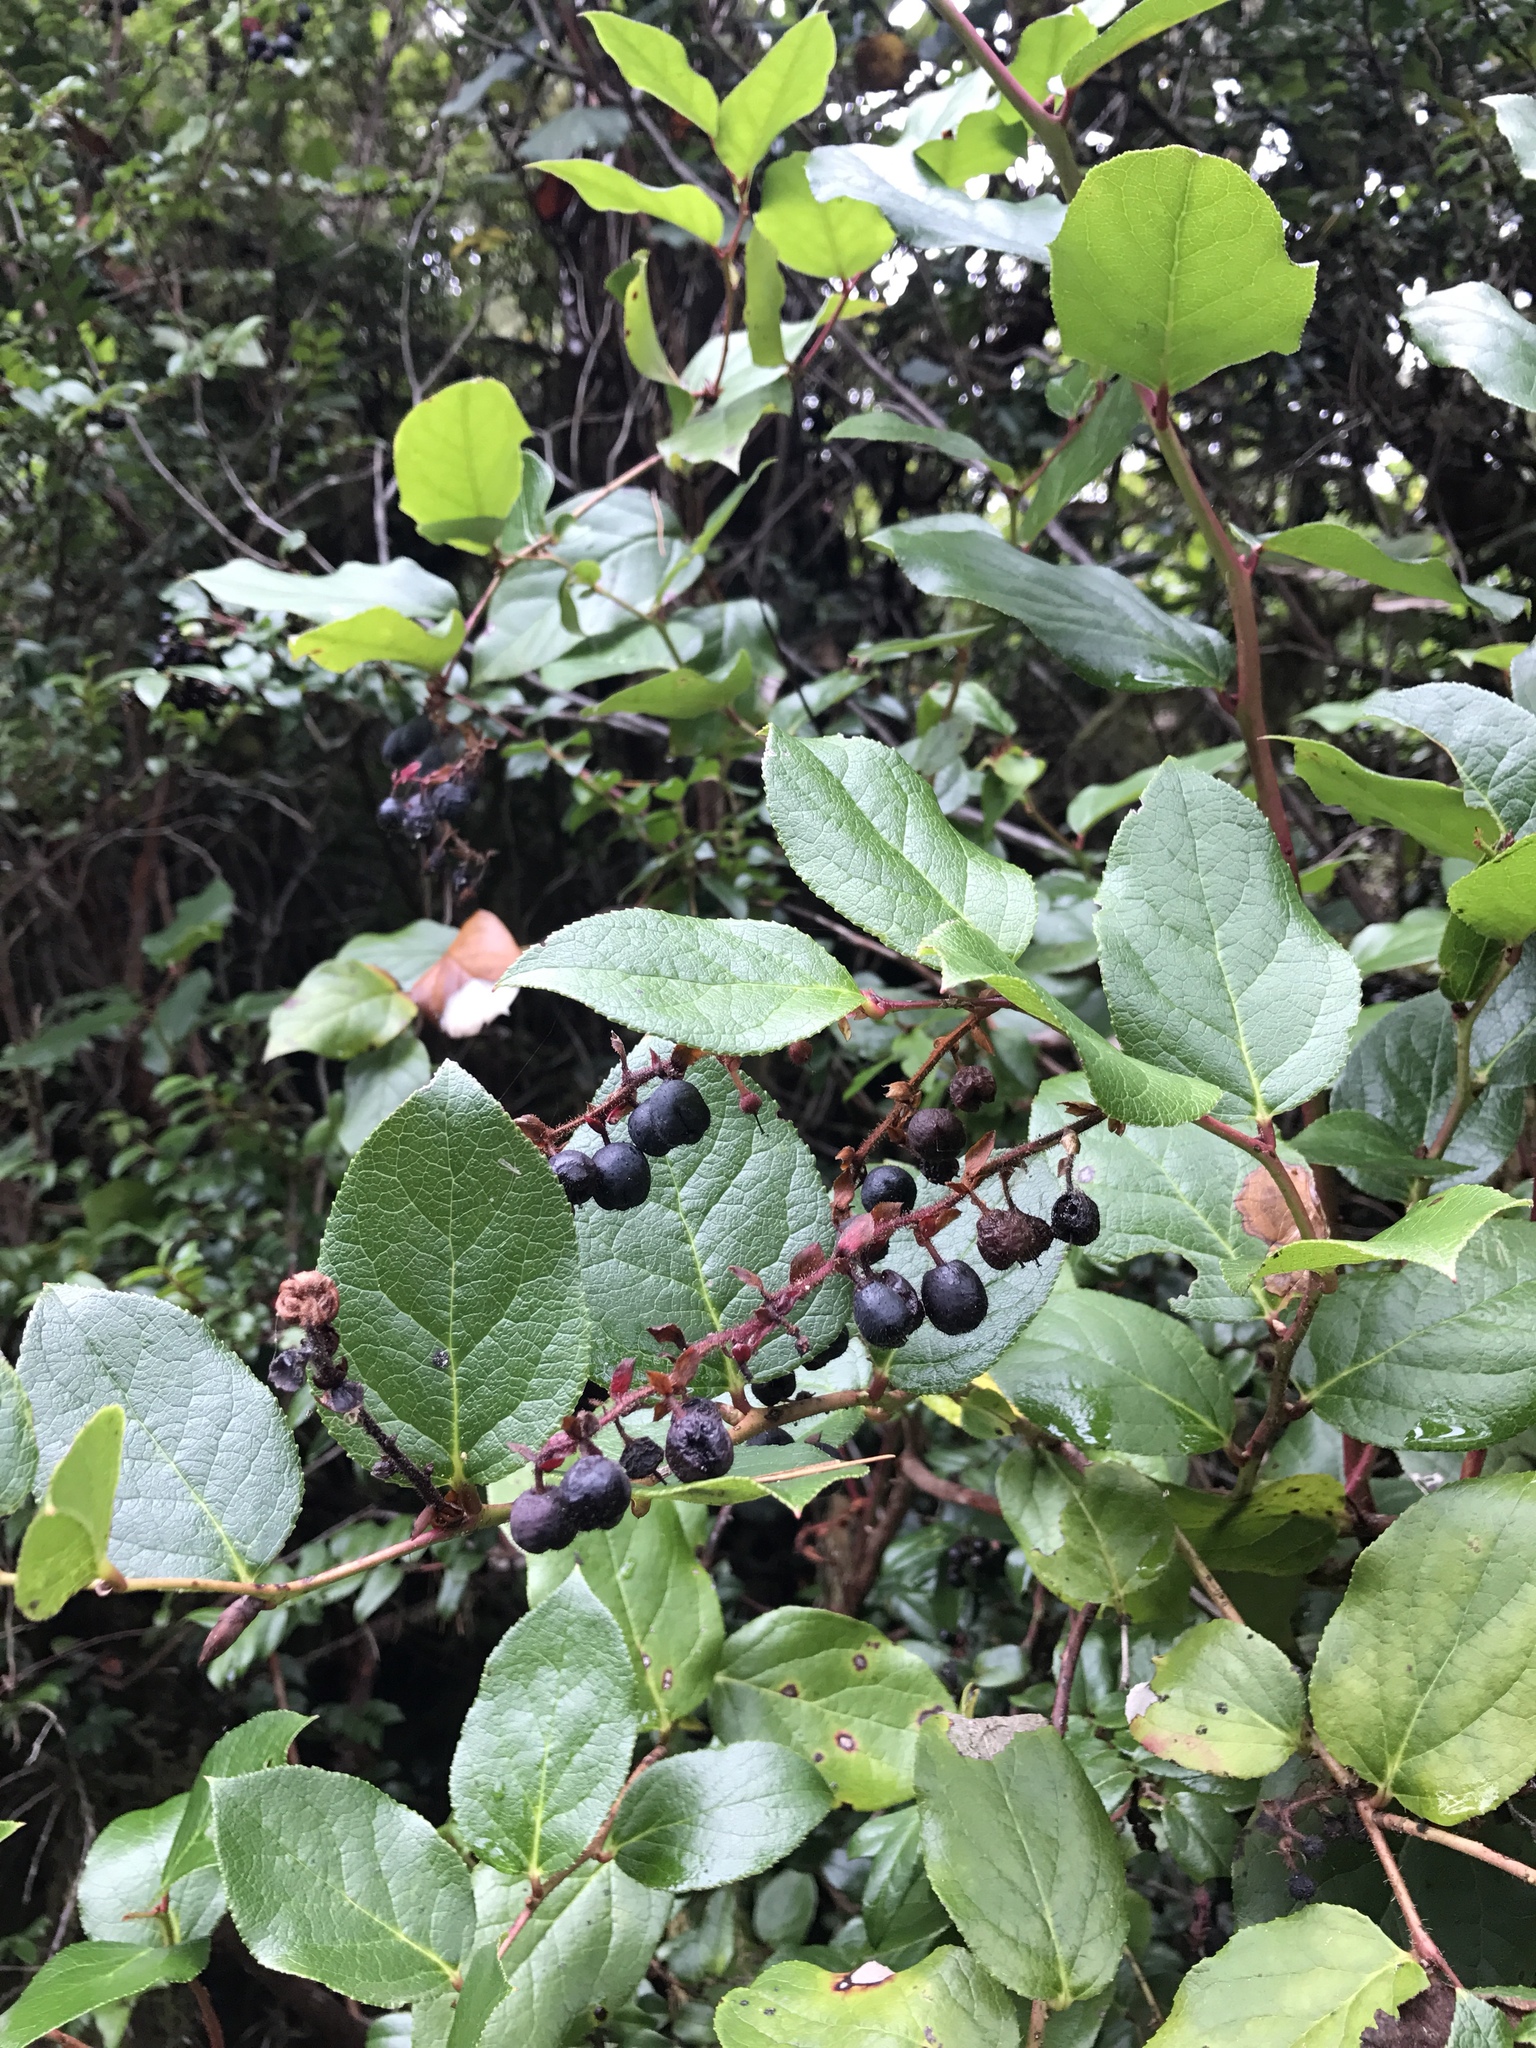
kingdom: Plantae
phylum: Tracheophyta
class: Magnoliopsida
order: Ericales
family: Ericaceae
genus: Gaultheria
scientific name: Gaultheria shallon
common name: Shallon
